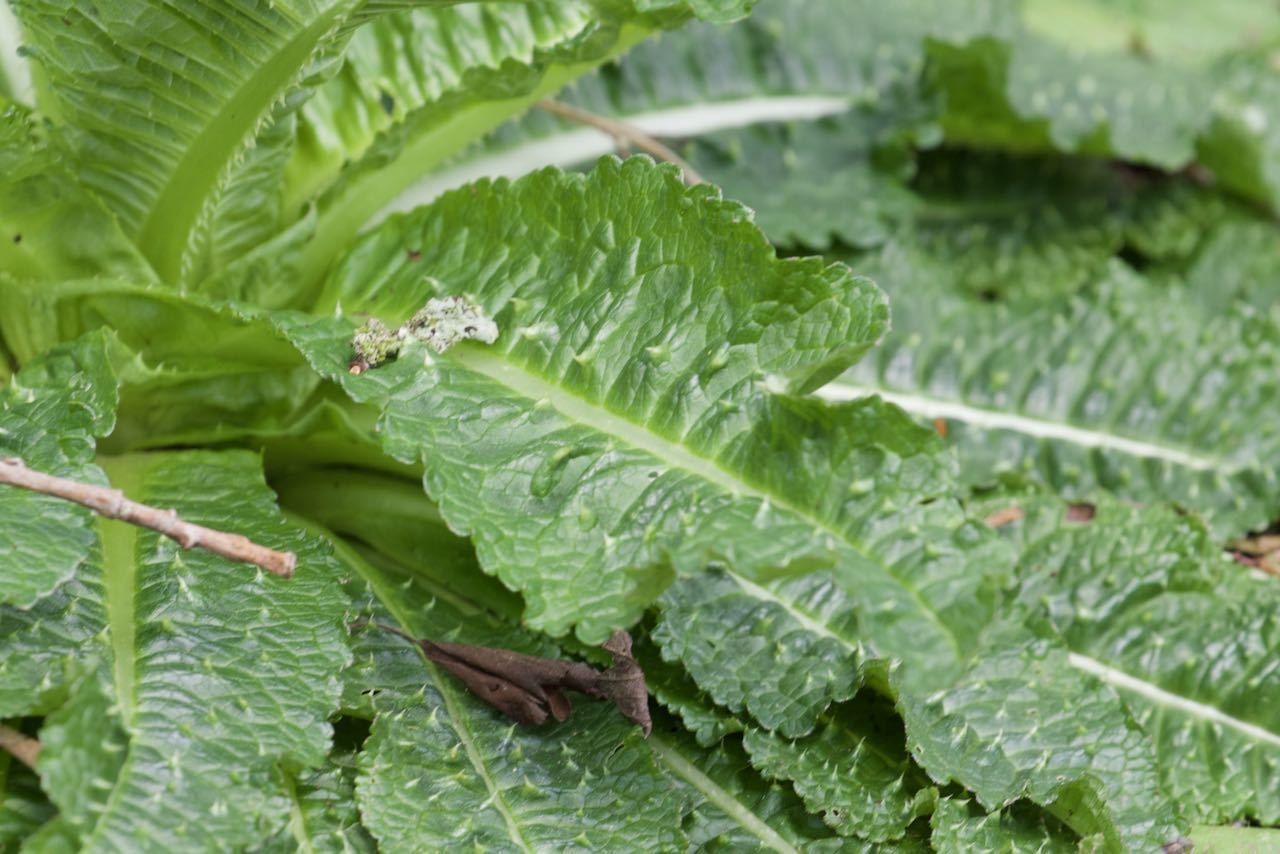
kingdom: Plantae
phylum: Tracheophyta
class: Magnoliopsida
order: Dipsacales
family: Caprifoliaceae
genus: Dipsacus
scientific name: Dipsacus fullonum
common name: Teasel
